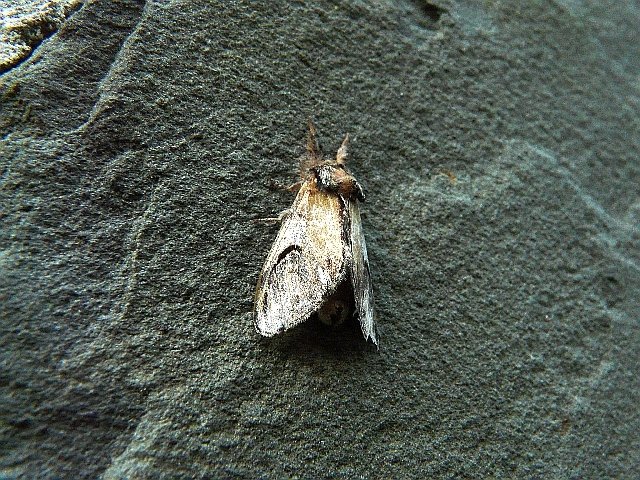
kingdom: Animalia
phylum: Arthropoda
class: Insecta
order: Lepidoptera
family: Notodontidae
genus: Notodonta
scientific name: Notodonta ziczac
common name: Pebble prominent
